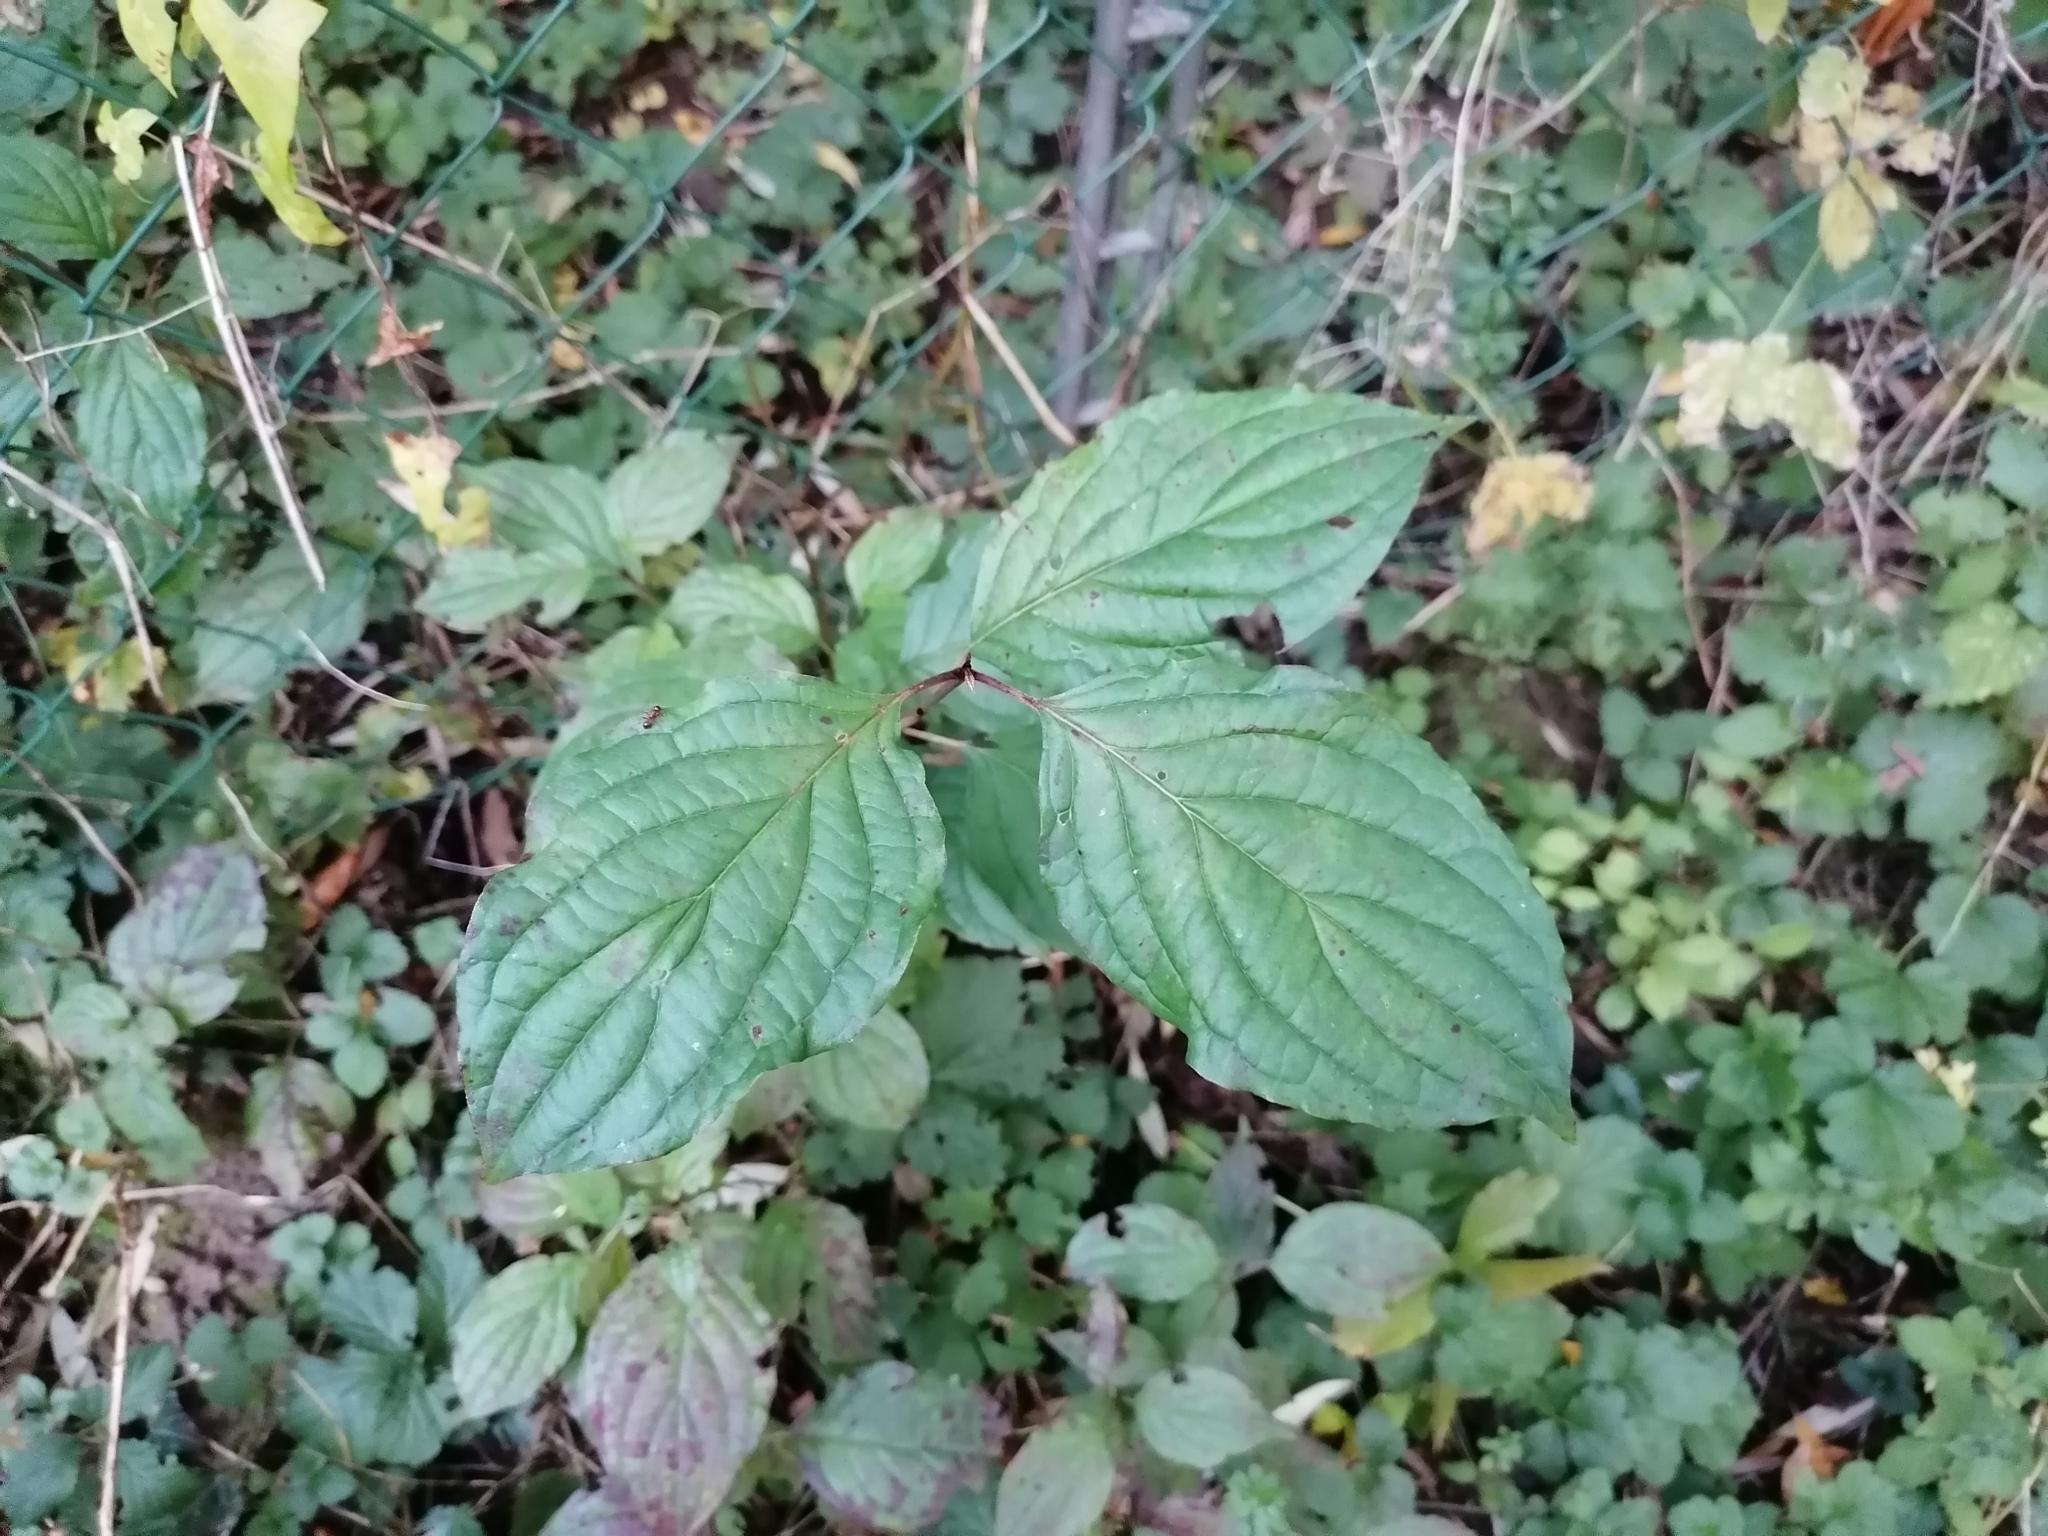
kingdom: Plantae
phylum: Tracheophyta
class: Magnoliopsida
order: Cornales
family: Cornaceae
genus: Cornus
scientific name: Cornus sanguinea
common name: Dogwood
